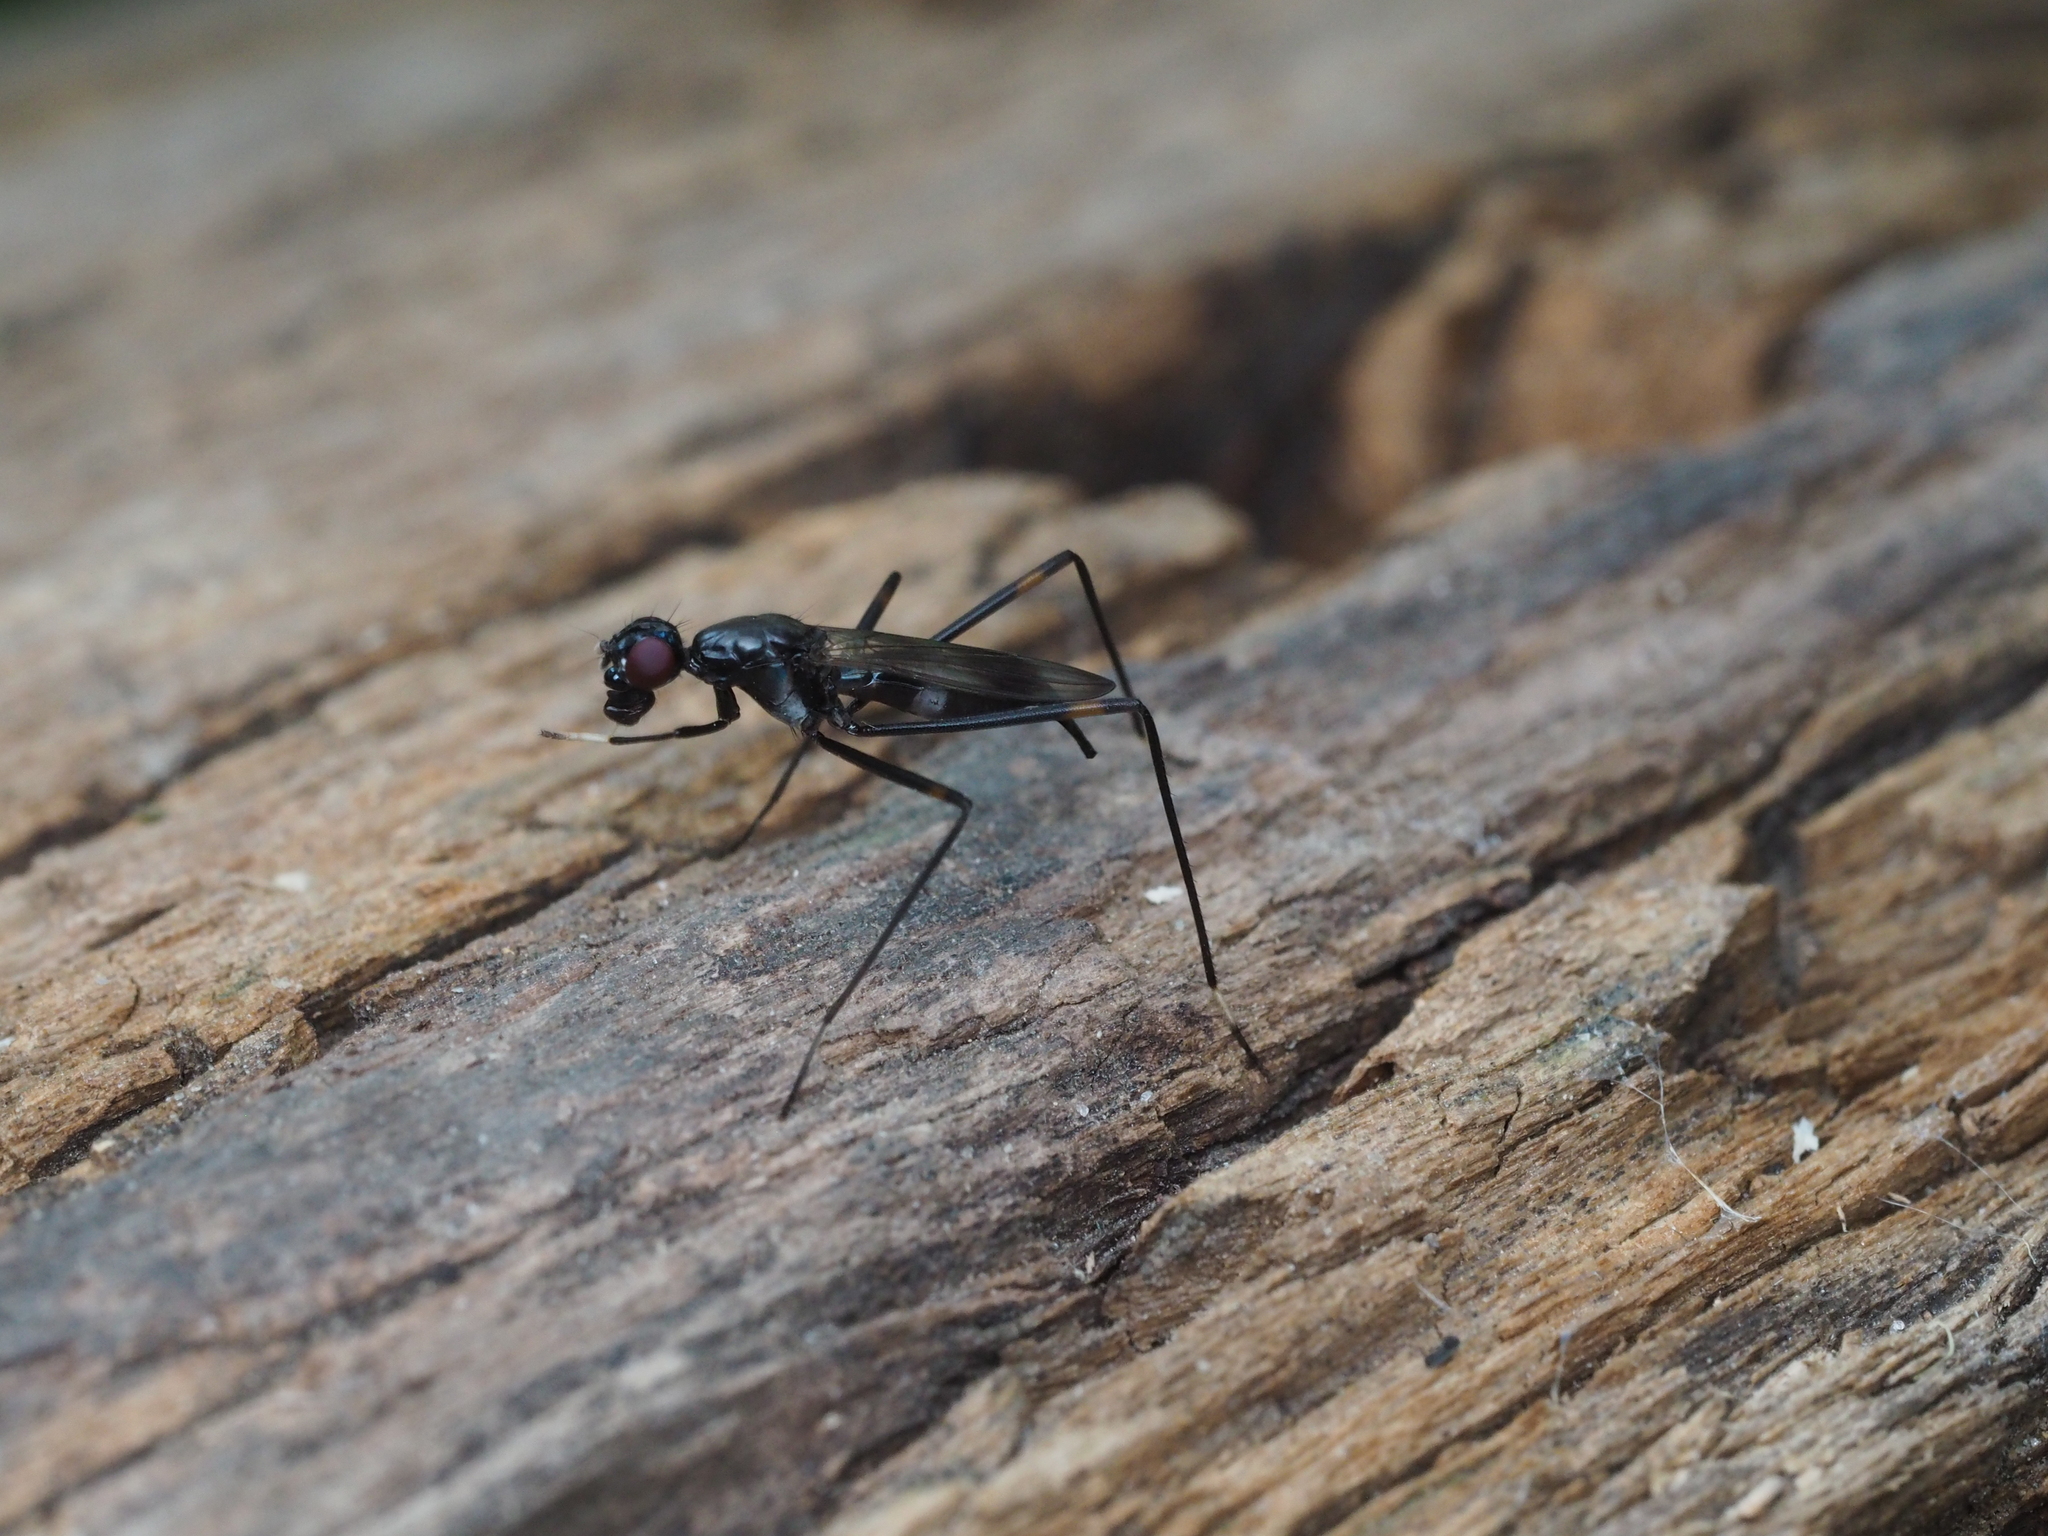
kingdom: Animalia
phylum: Arthropoda
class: Insecta
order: Diptera
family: Micropezidae
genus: Rainieria
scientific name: Rainieria calceata
